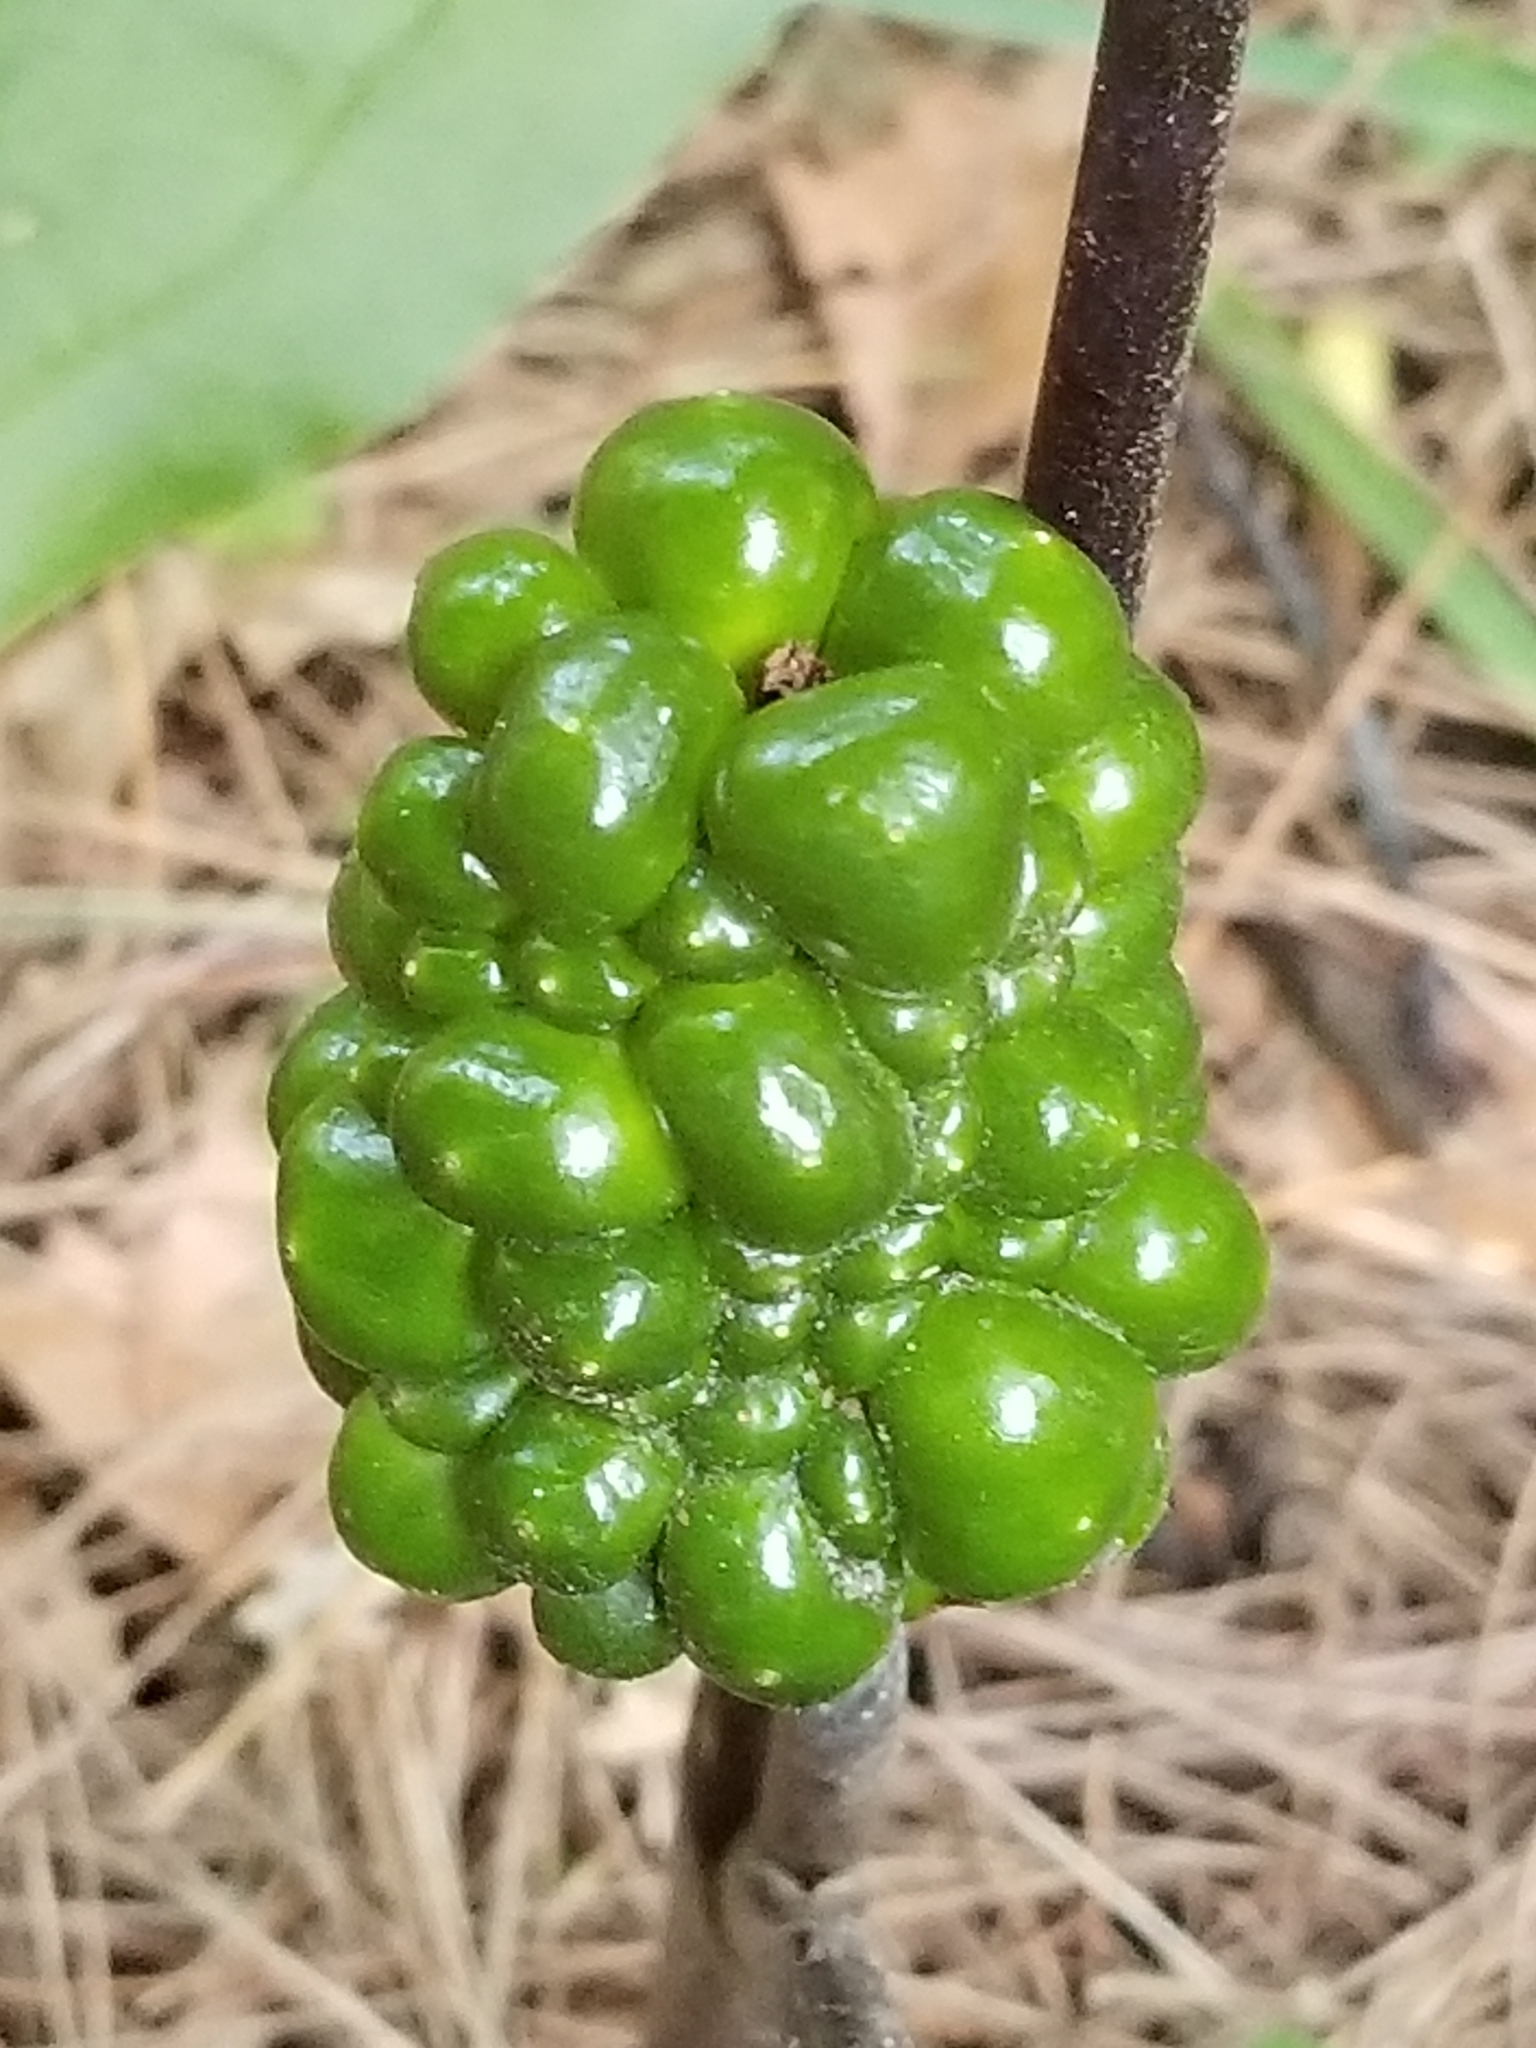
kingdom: Plantae
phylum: Tracheophyta
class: Liliopsida
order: Alismatales
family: Araceae
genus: Arisaema
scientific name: Arisaema triphyllum
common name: Jack-in-the-pulpit
